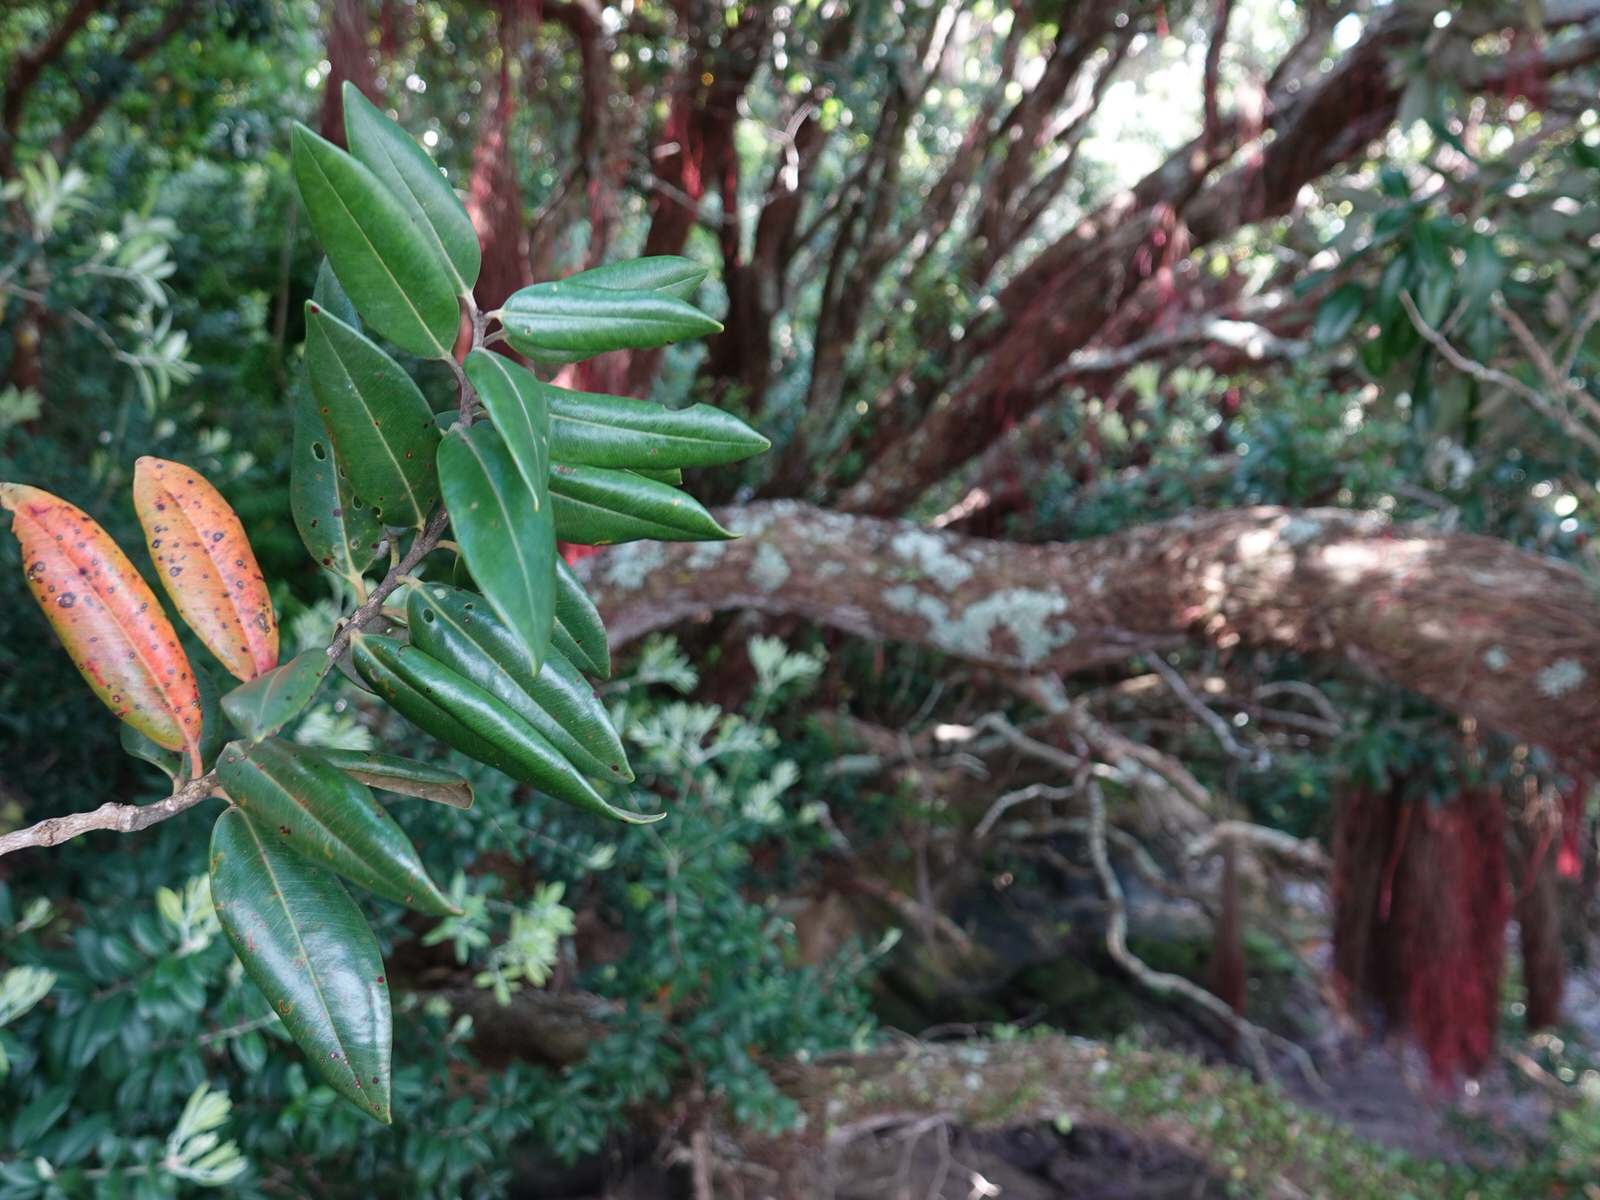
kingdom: Plantae
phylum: Tracheophyta
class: Magnoliopsida
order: Myrtales
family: Myrtaceae
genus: Metrosideros
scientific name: Metrosideros excelsa
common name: New zealand christmastree
